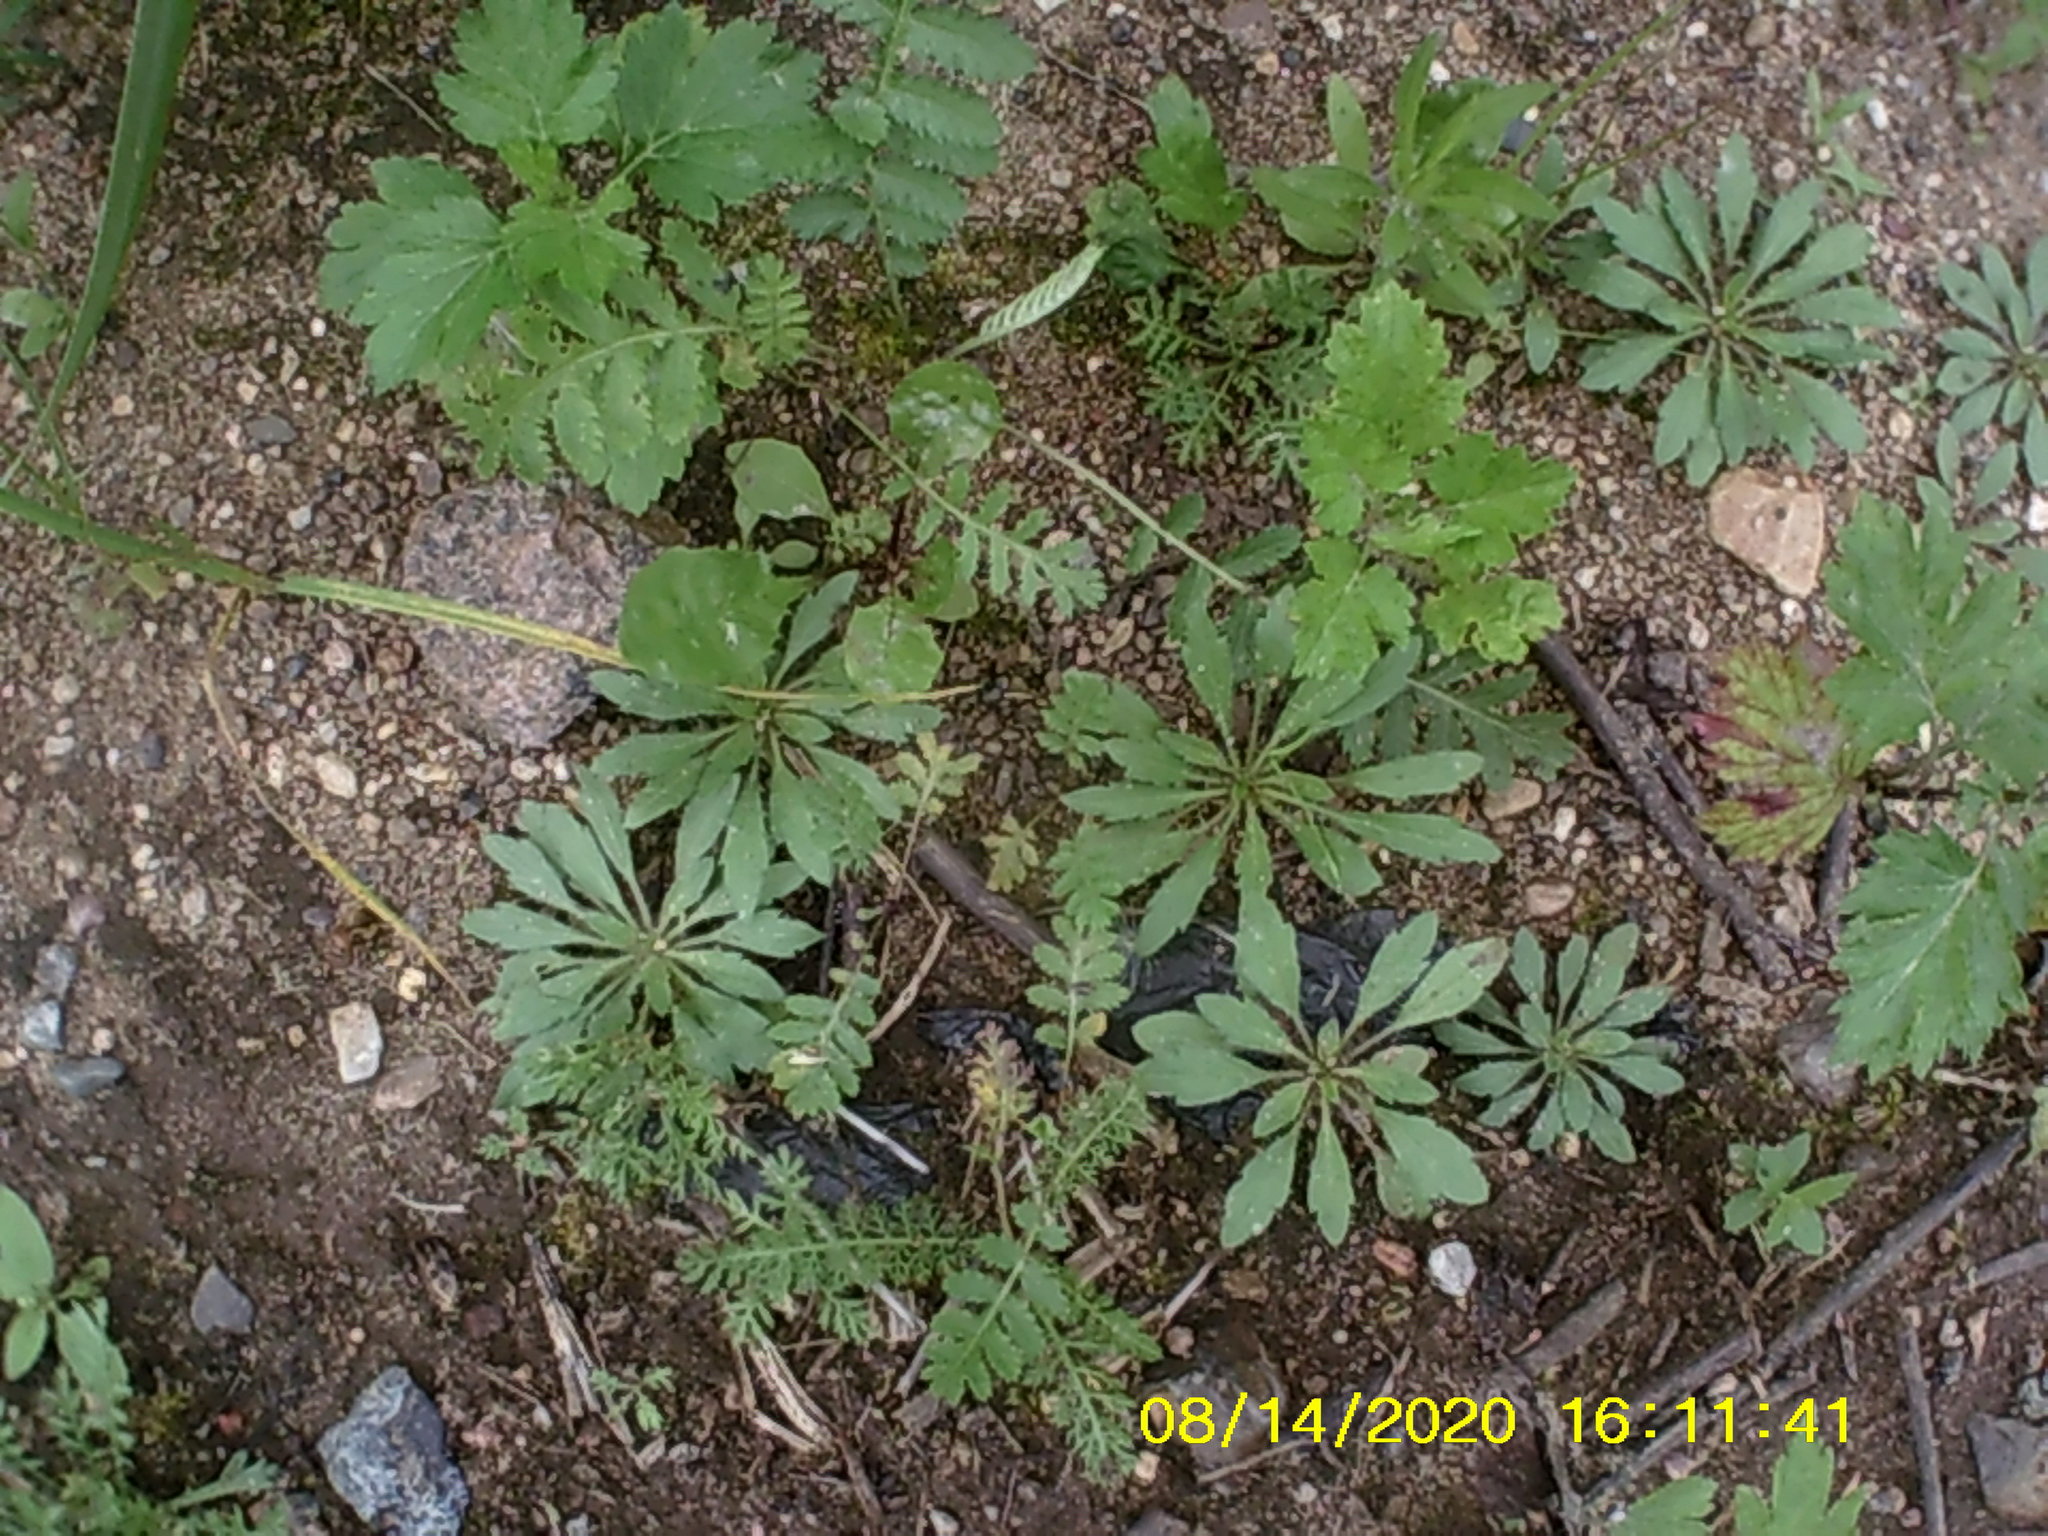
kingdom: Plantae
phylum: Tracheophyta
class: Magnoliopsida
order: Asterales
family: Asteraceae
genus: Erigeron
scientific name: Erigeron canadensis
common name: Canadian fleabane
